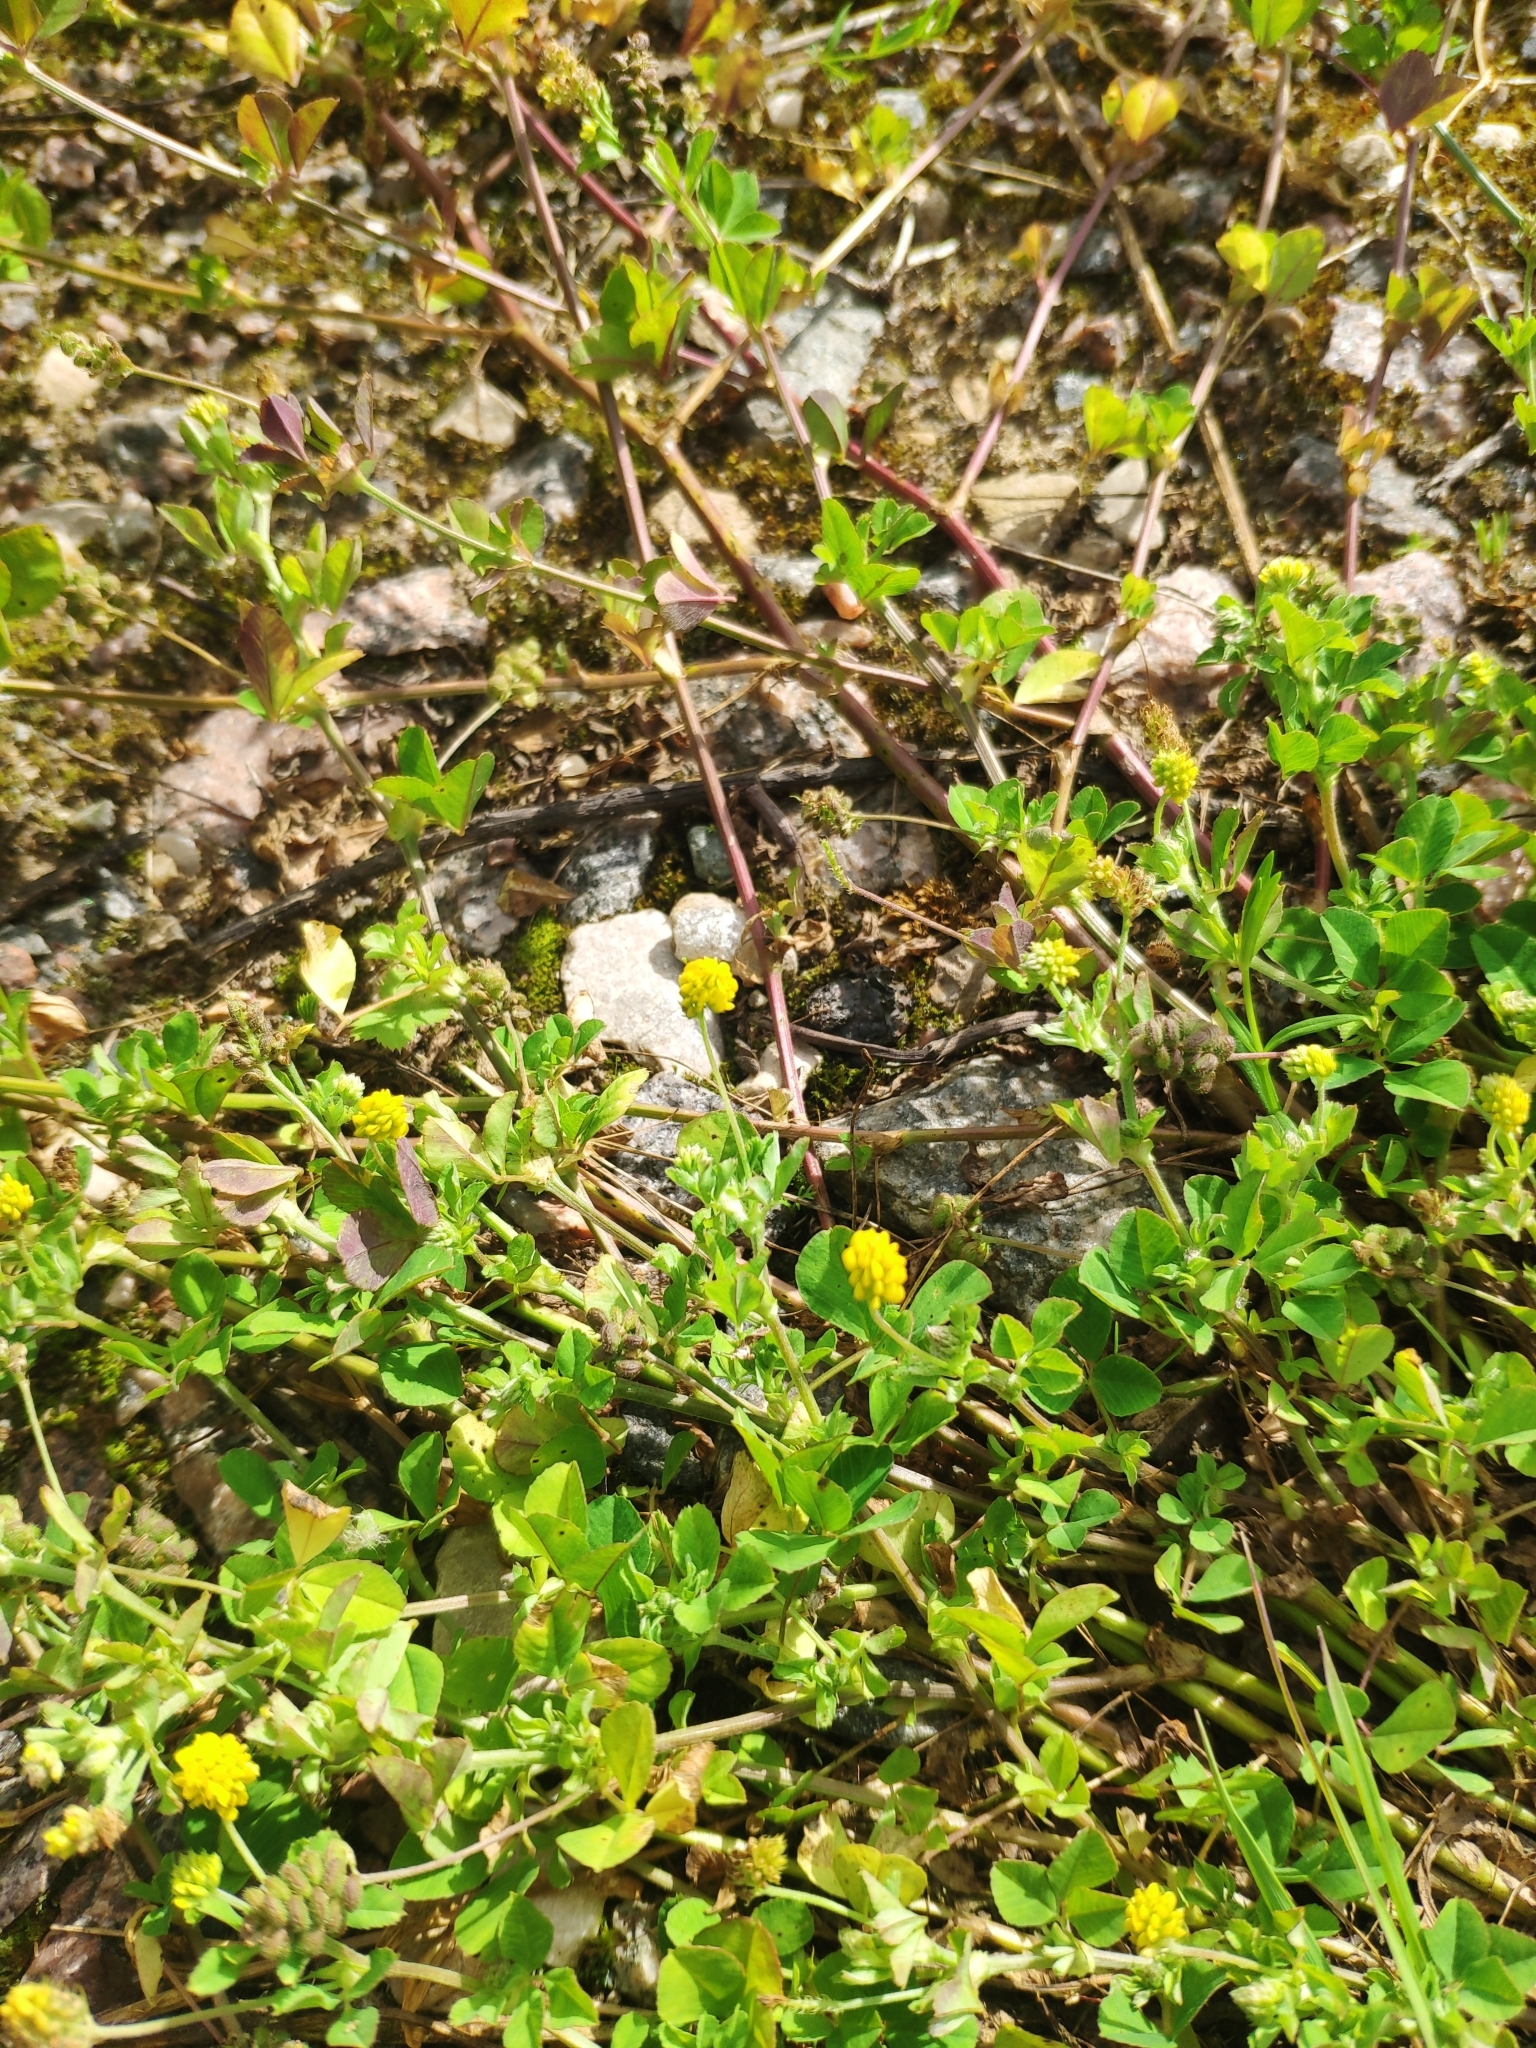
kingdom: Plantae
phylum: Tracheophyta
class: Magnoliopsida
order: Fabales
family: Fabaceae
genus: Medicago
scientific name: Medicago lupulina
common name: Black medick
